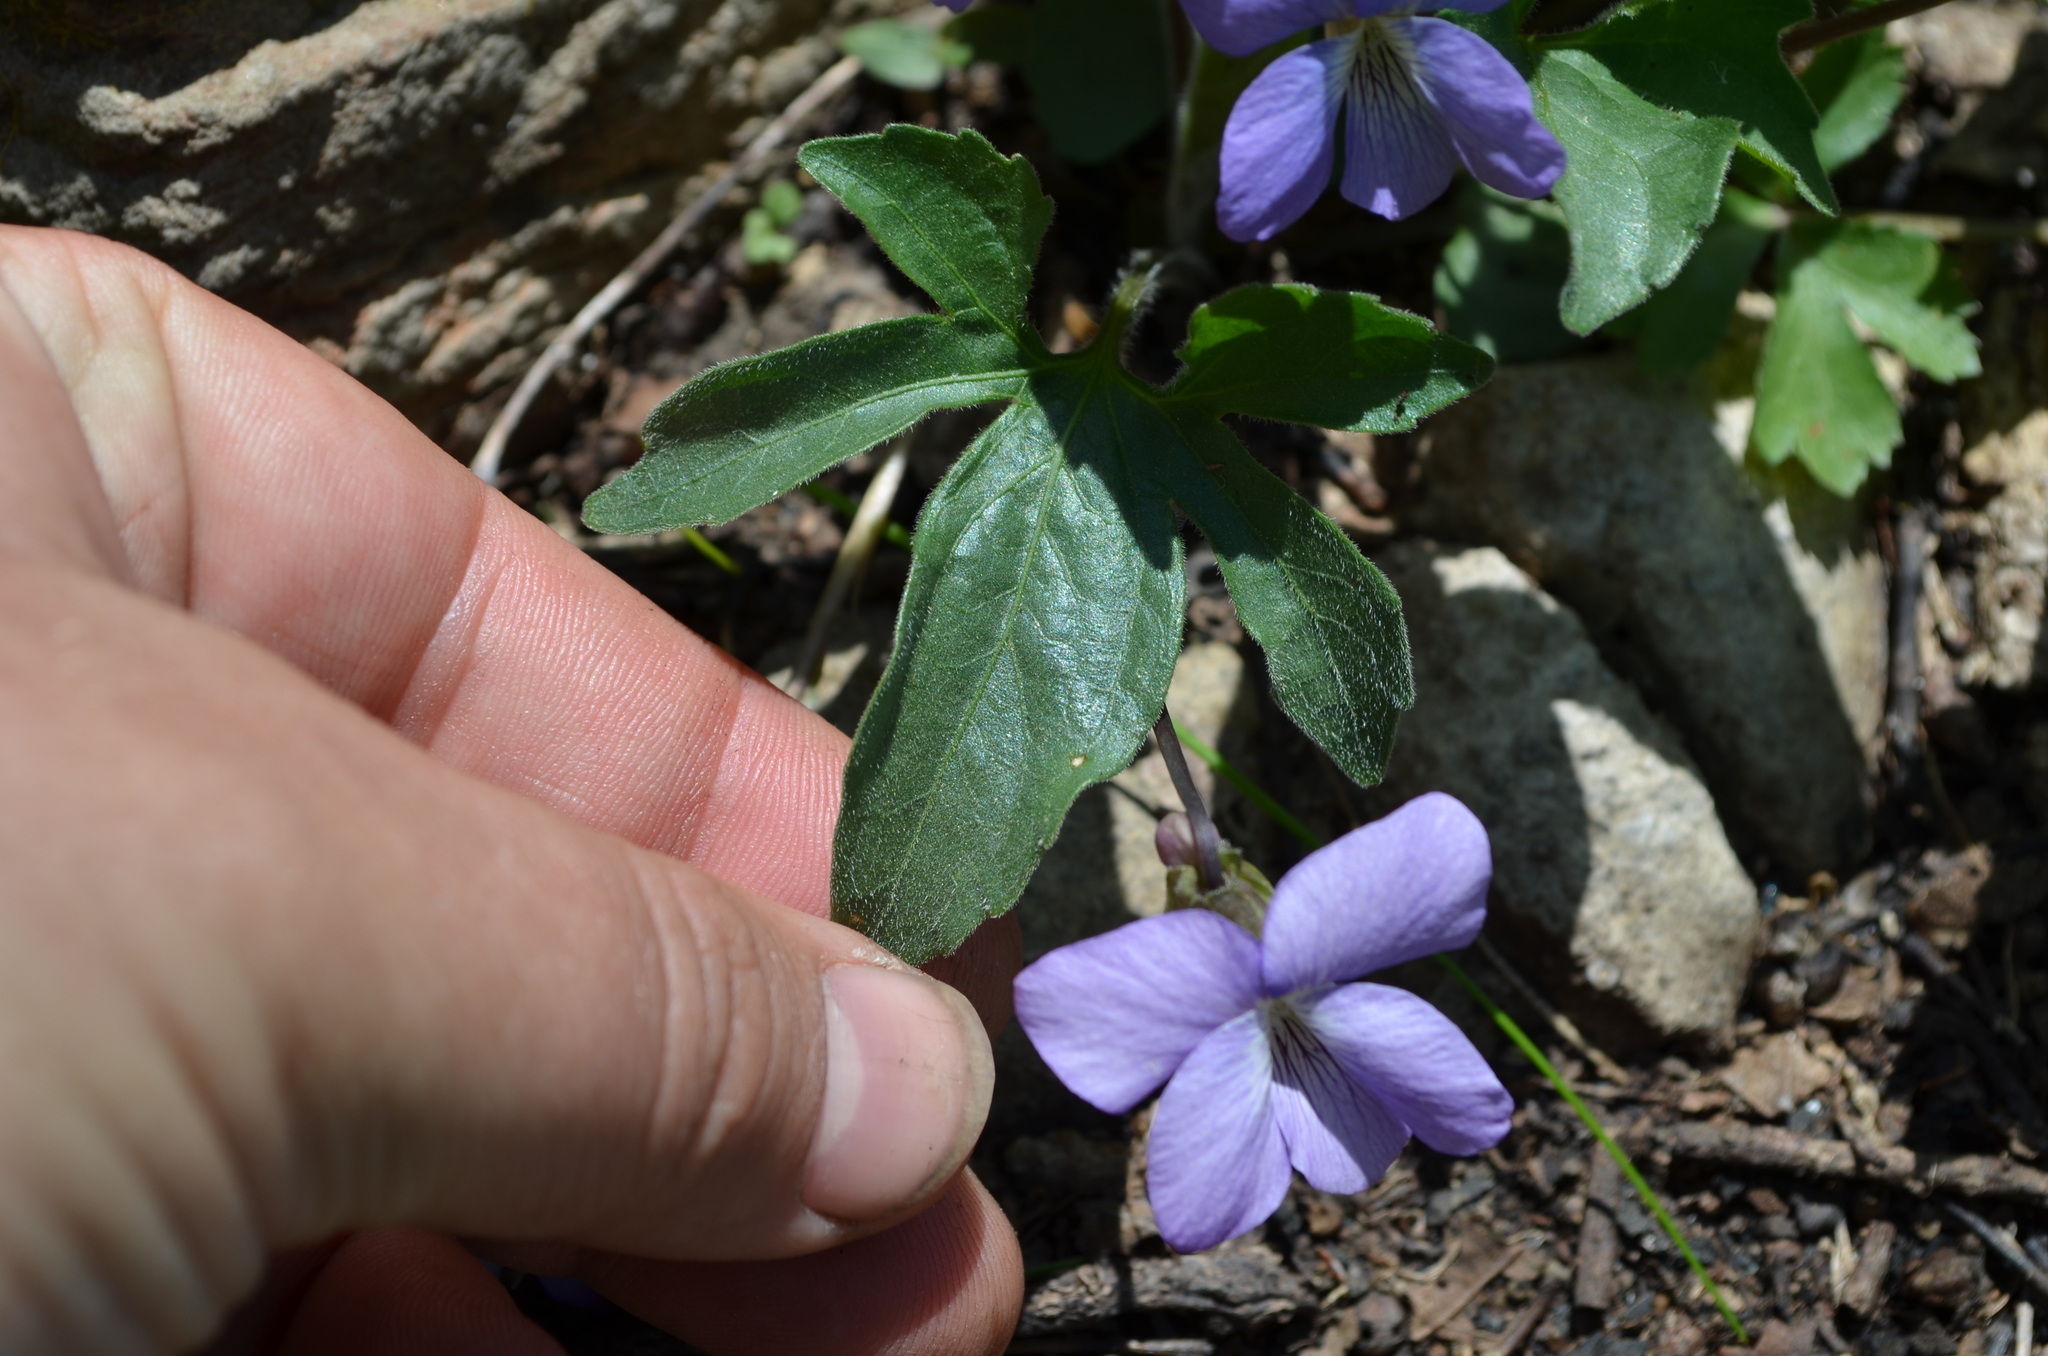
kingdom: Plantae
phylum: Tracheophyta
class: Magnoliopsida
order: Malpighiales
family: Violaceae
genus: Viola
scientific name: Viola palmata
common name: Early blue violet
